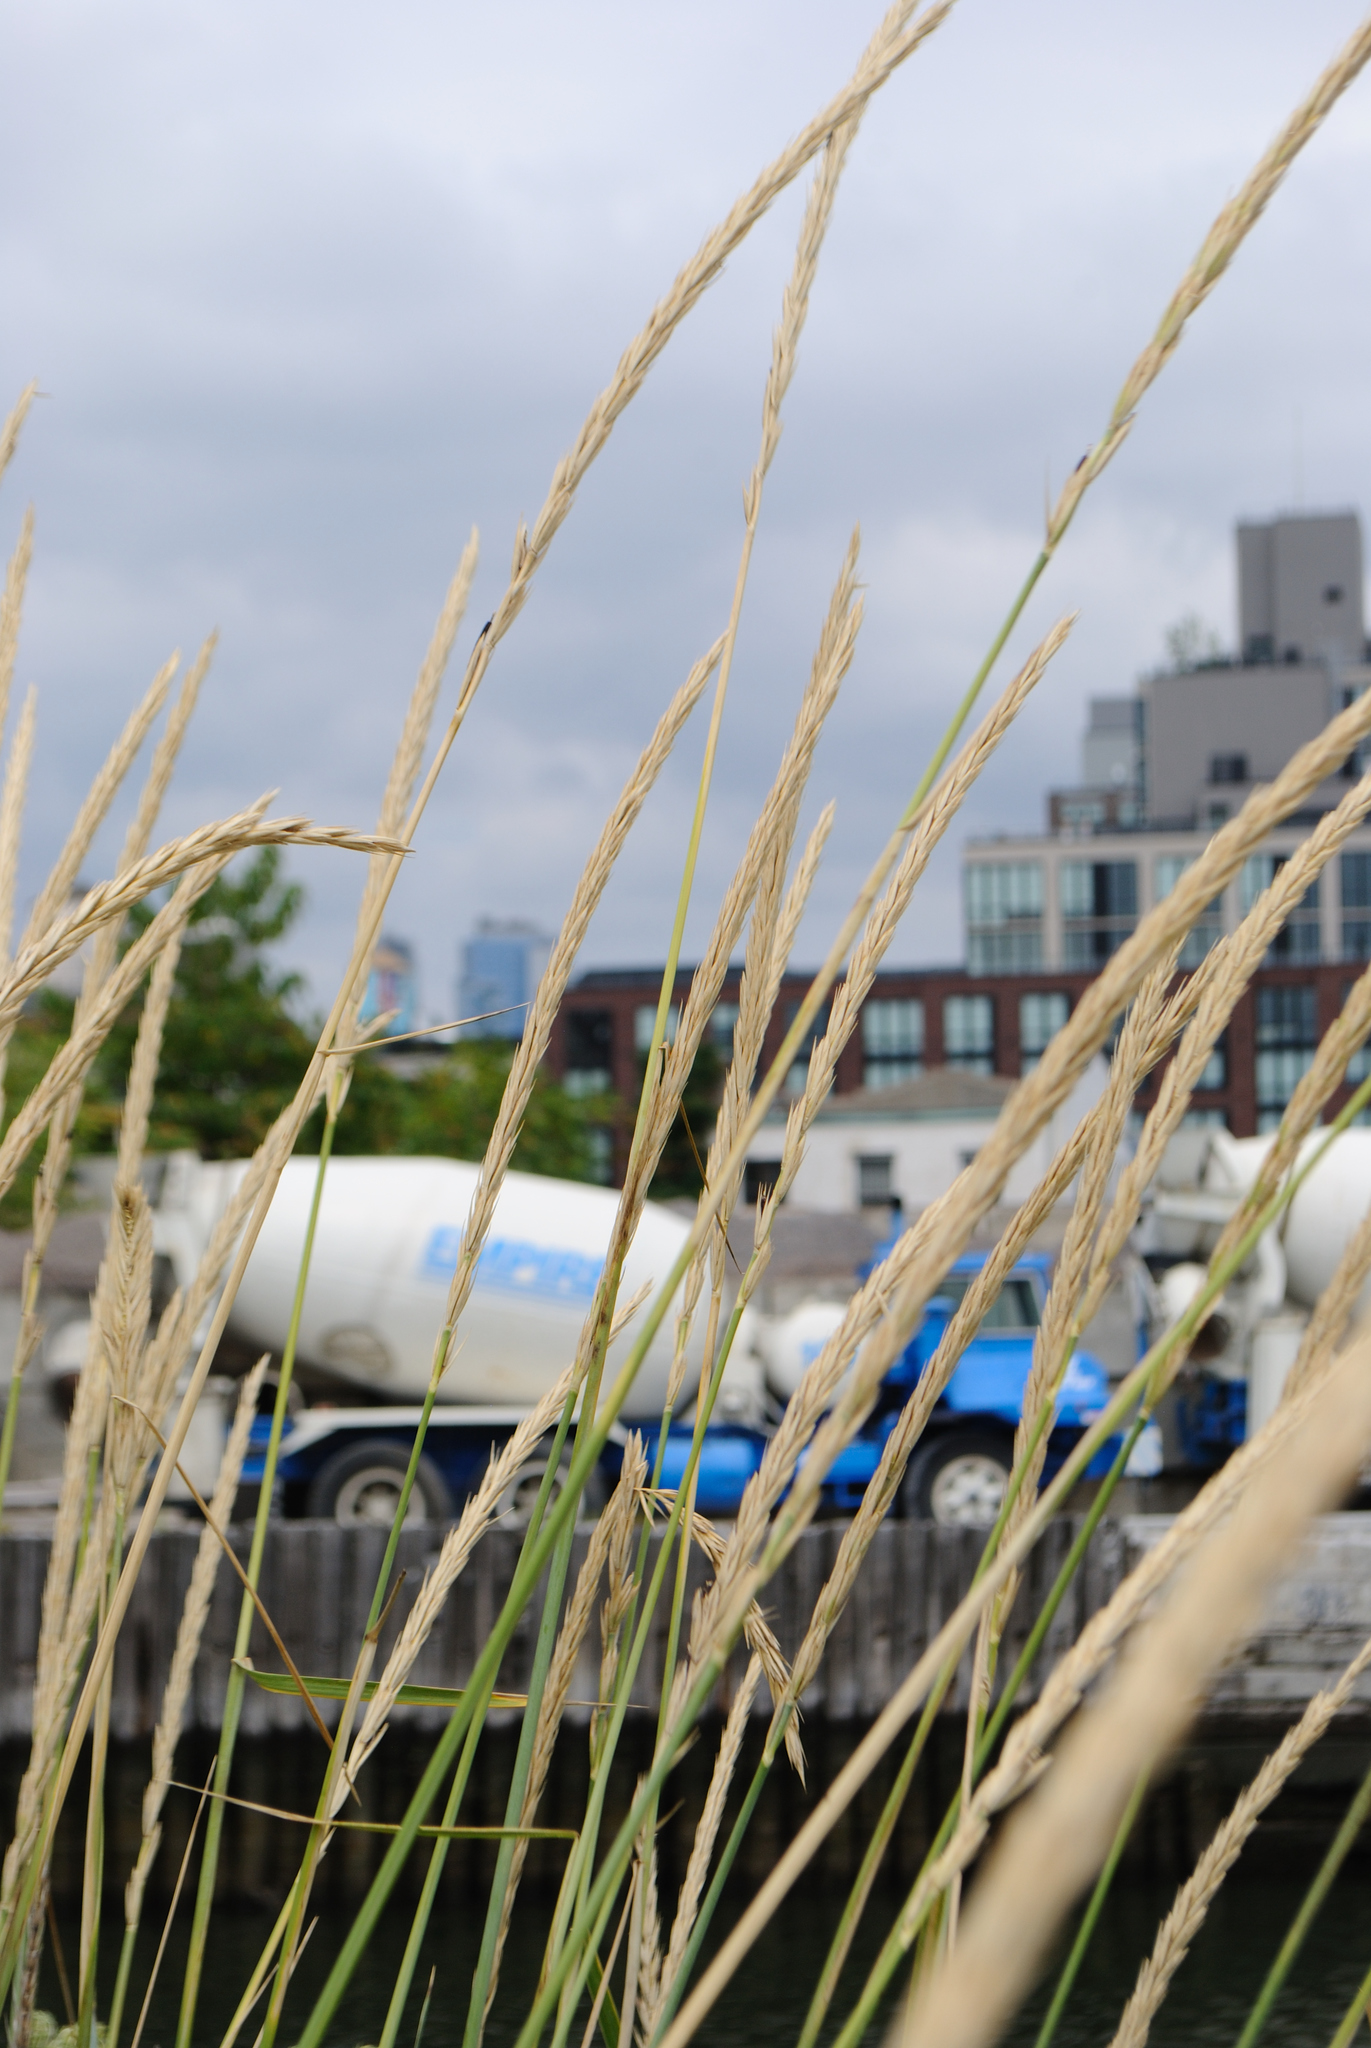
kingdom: Plantae
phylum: Tracheophyta
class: Liliopsida
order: Poales
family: Poaceae
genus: Leymus
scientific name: Leymus arenarius
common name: Lyme-grass
